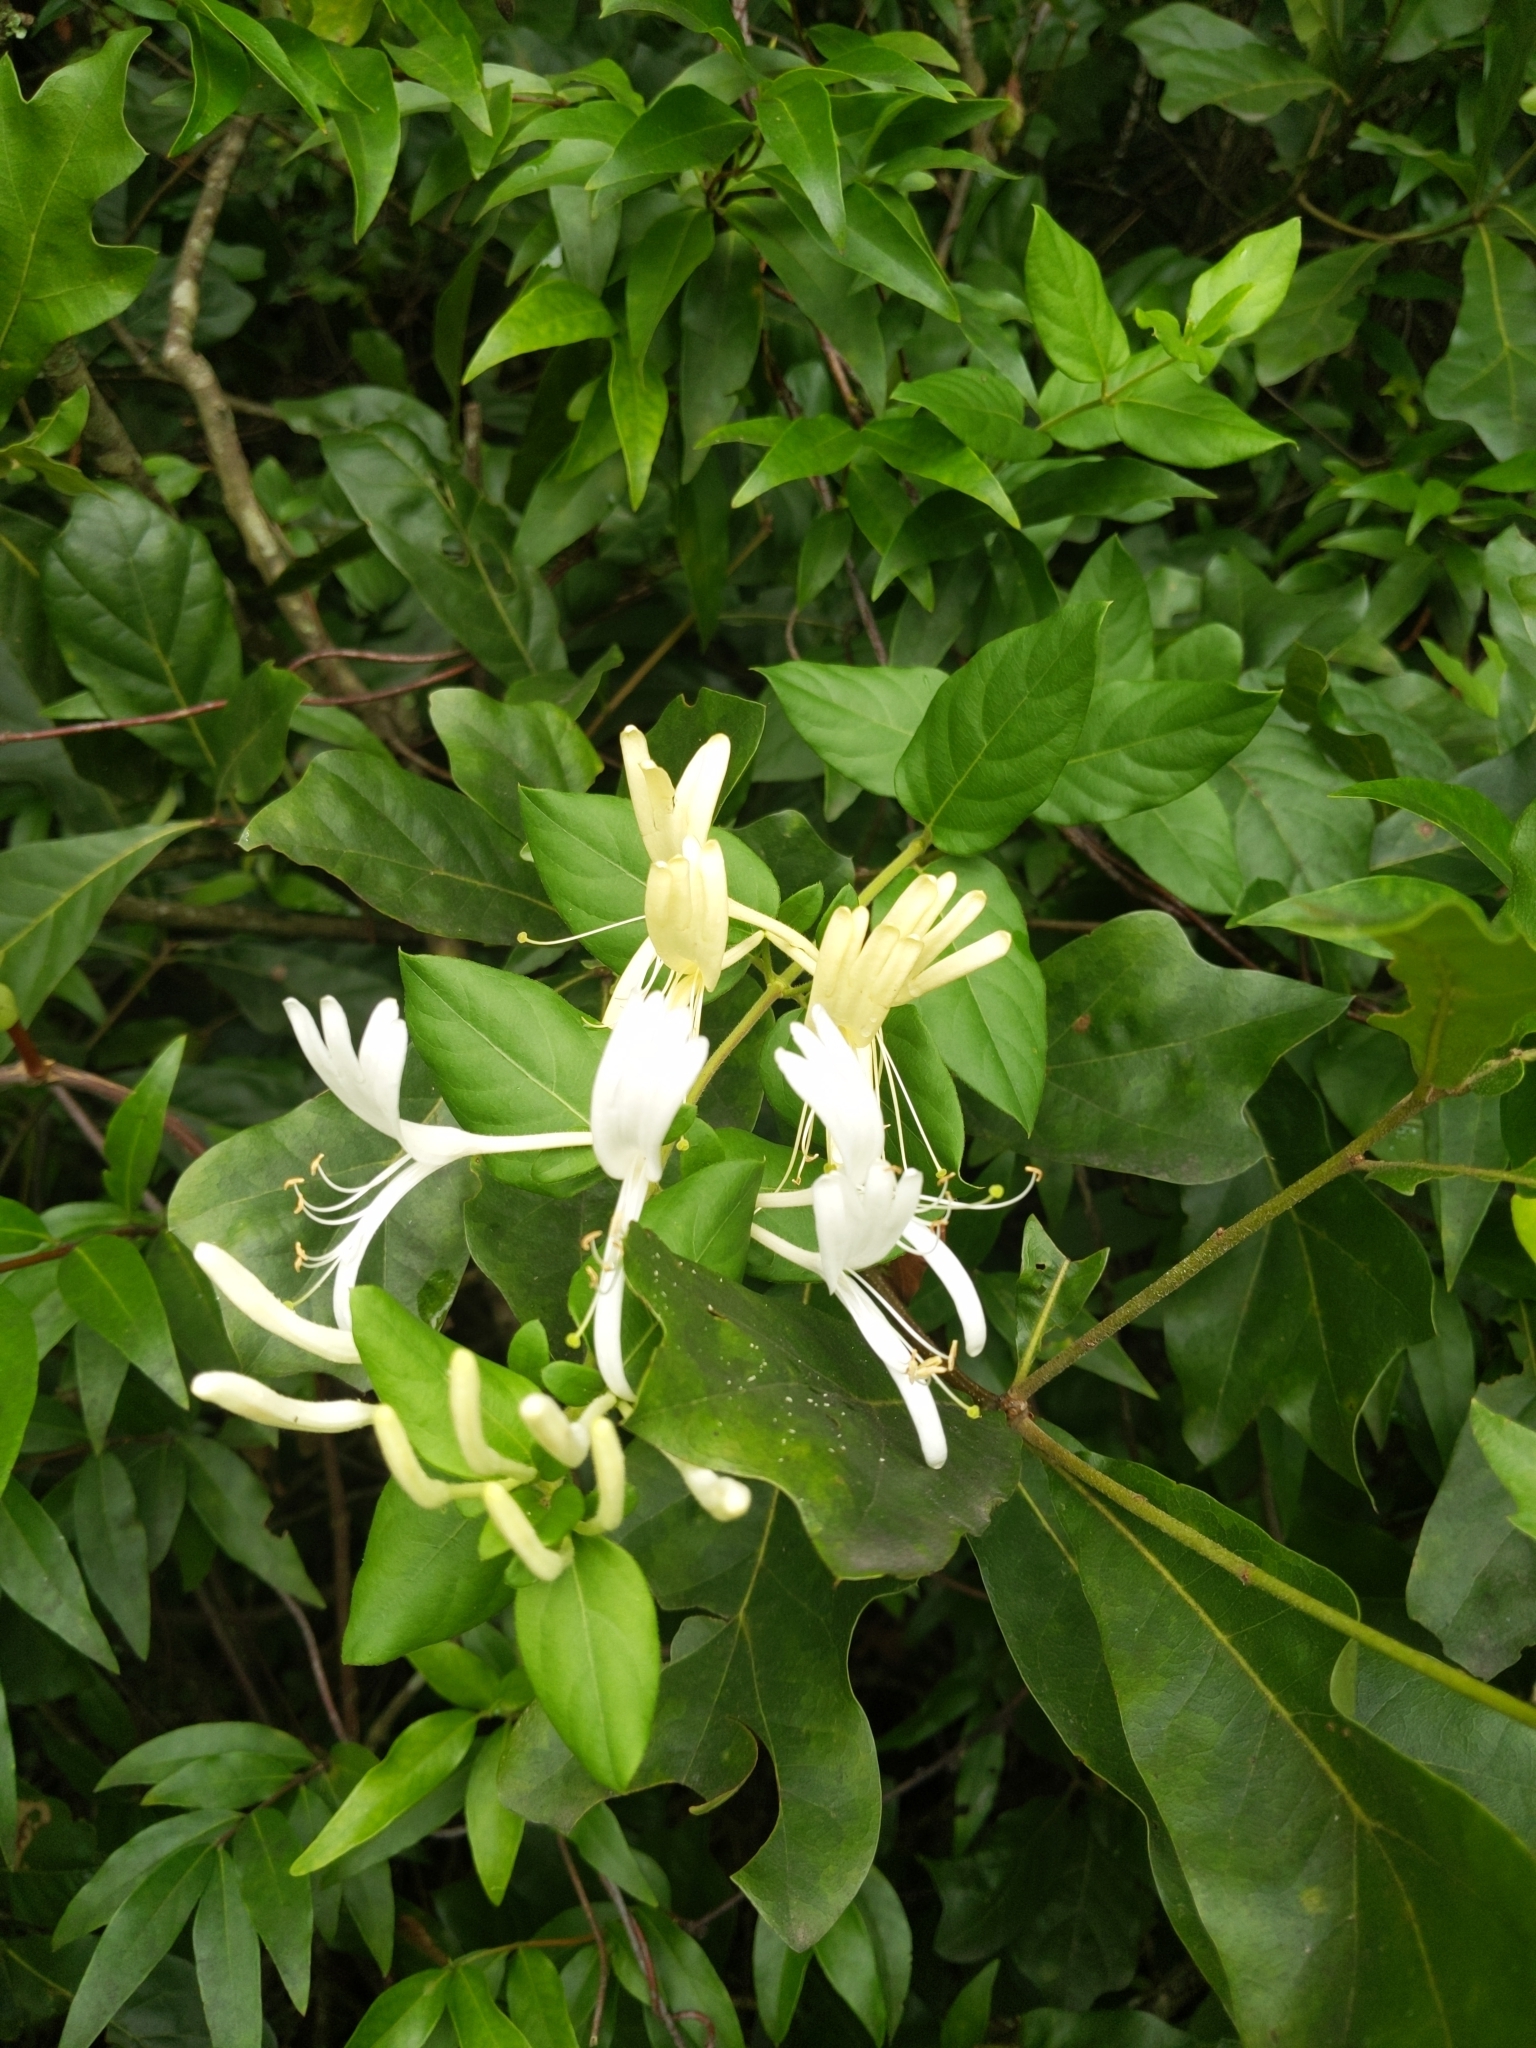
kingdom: Plantae
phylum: Tracheophyta
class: Magnoliopsida
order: Dipsacales
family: Caprifoliaceae
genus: Lonicera
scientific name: Lonicera japonica
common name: Japanese honeysuckle
